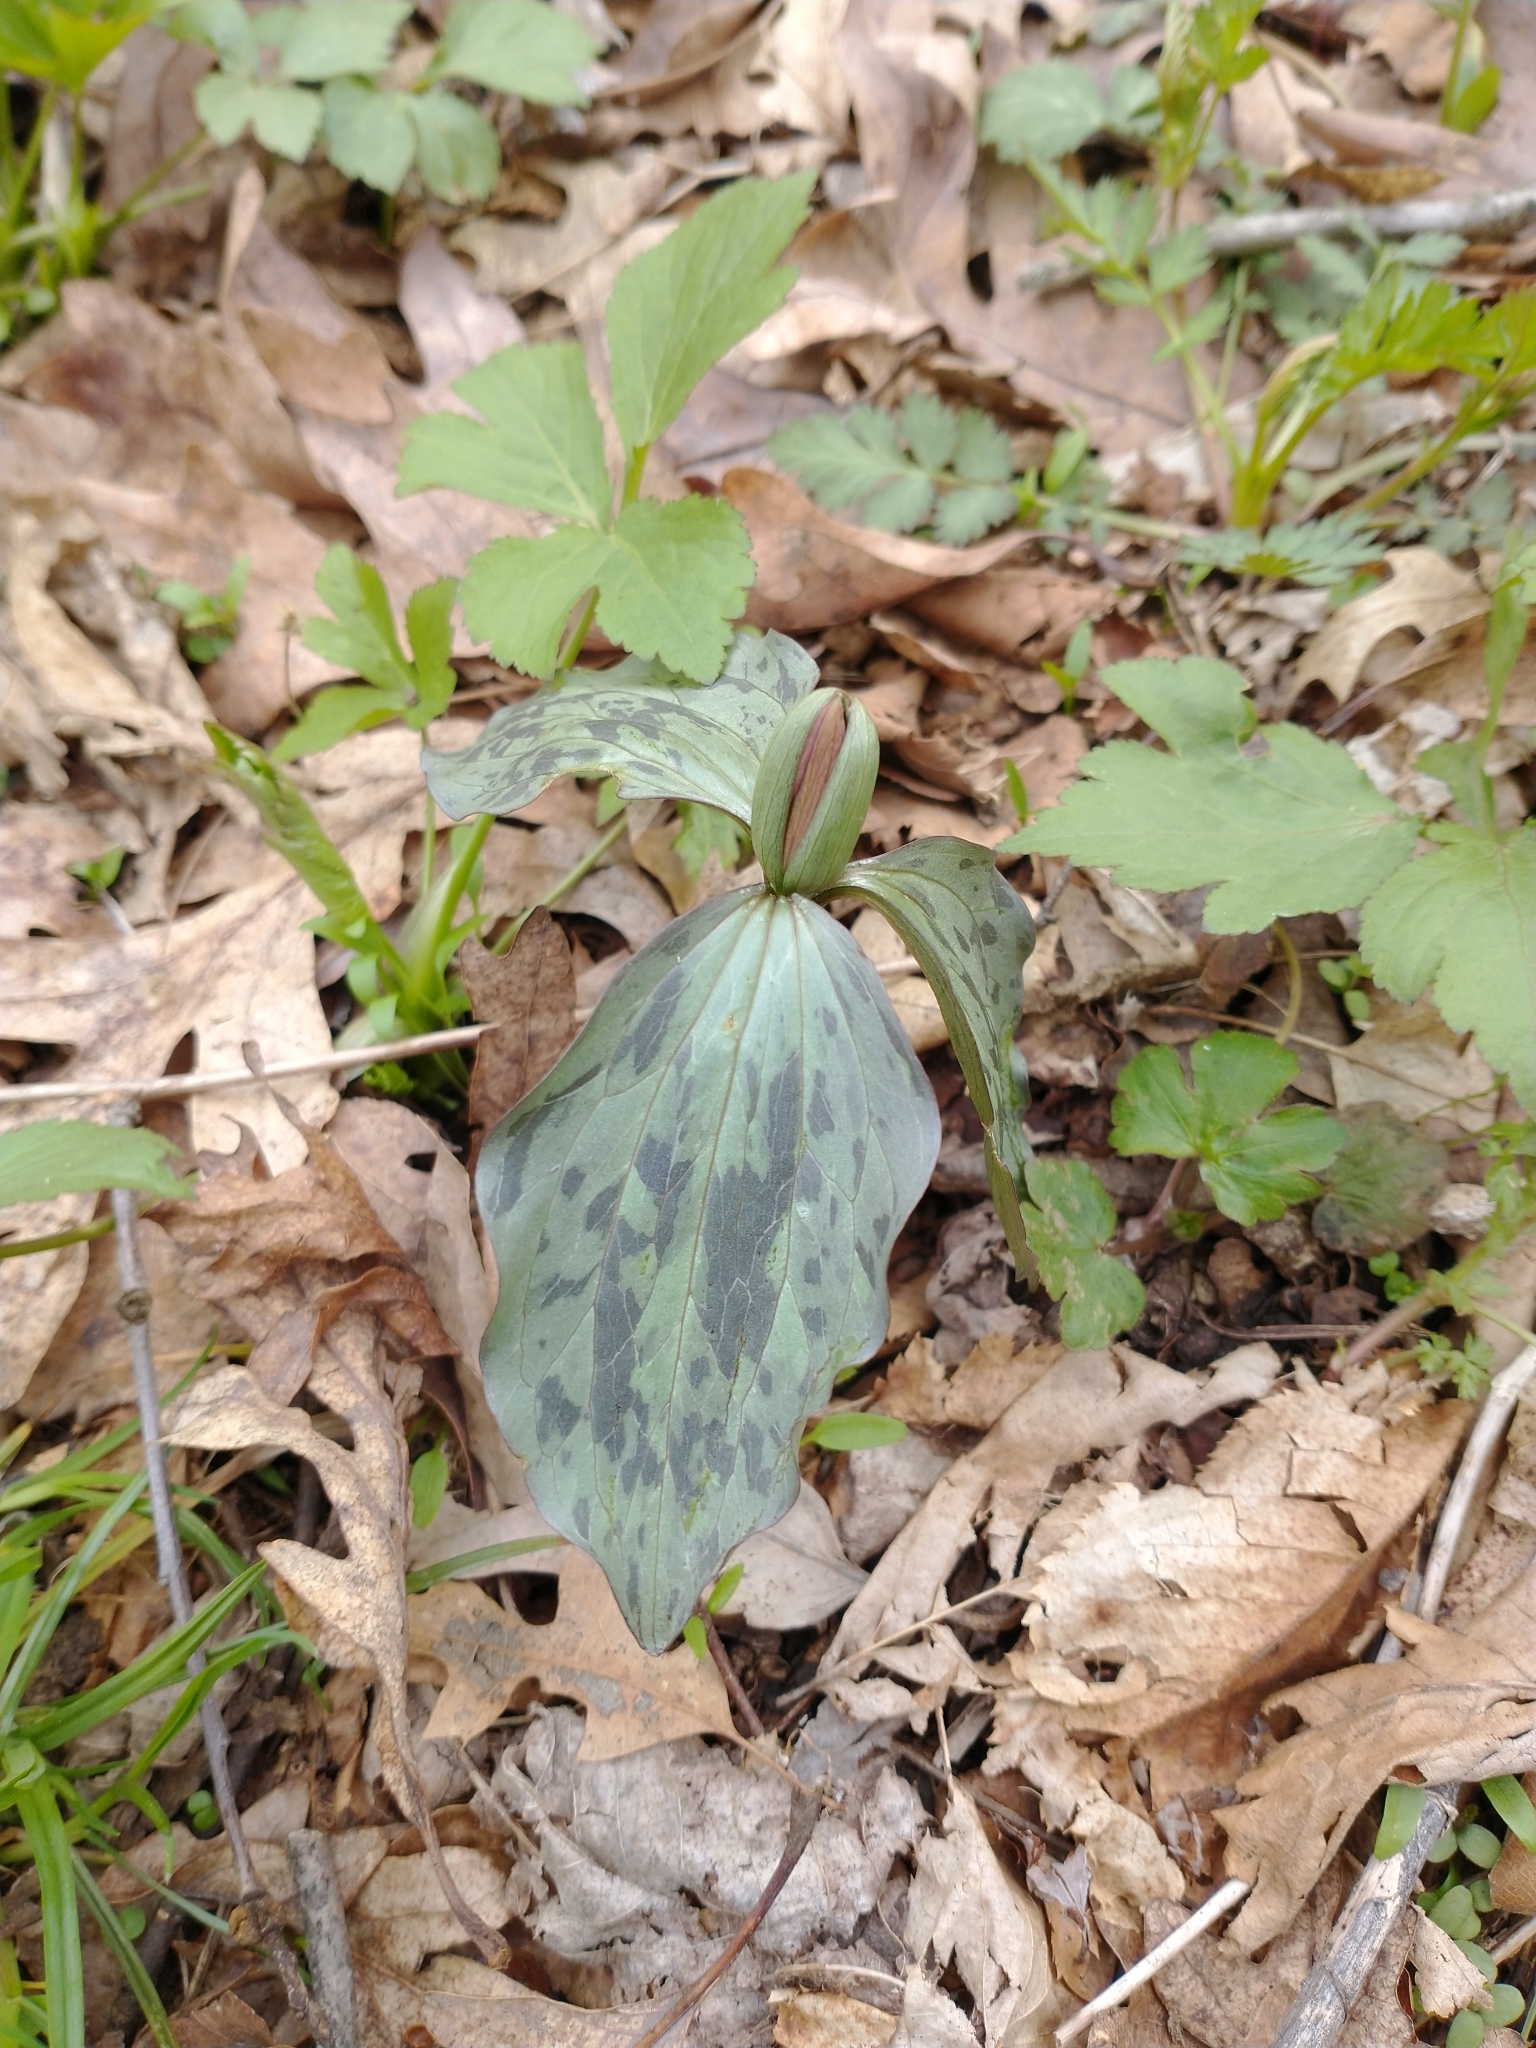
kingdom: Plantae
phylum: Tracheophyta
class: Liliopsida
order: Liliales
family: Melanthiaceae
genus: Trillium
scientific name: Trillium recurvatum
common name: Bloody butcher
